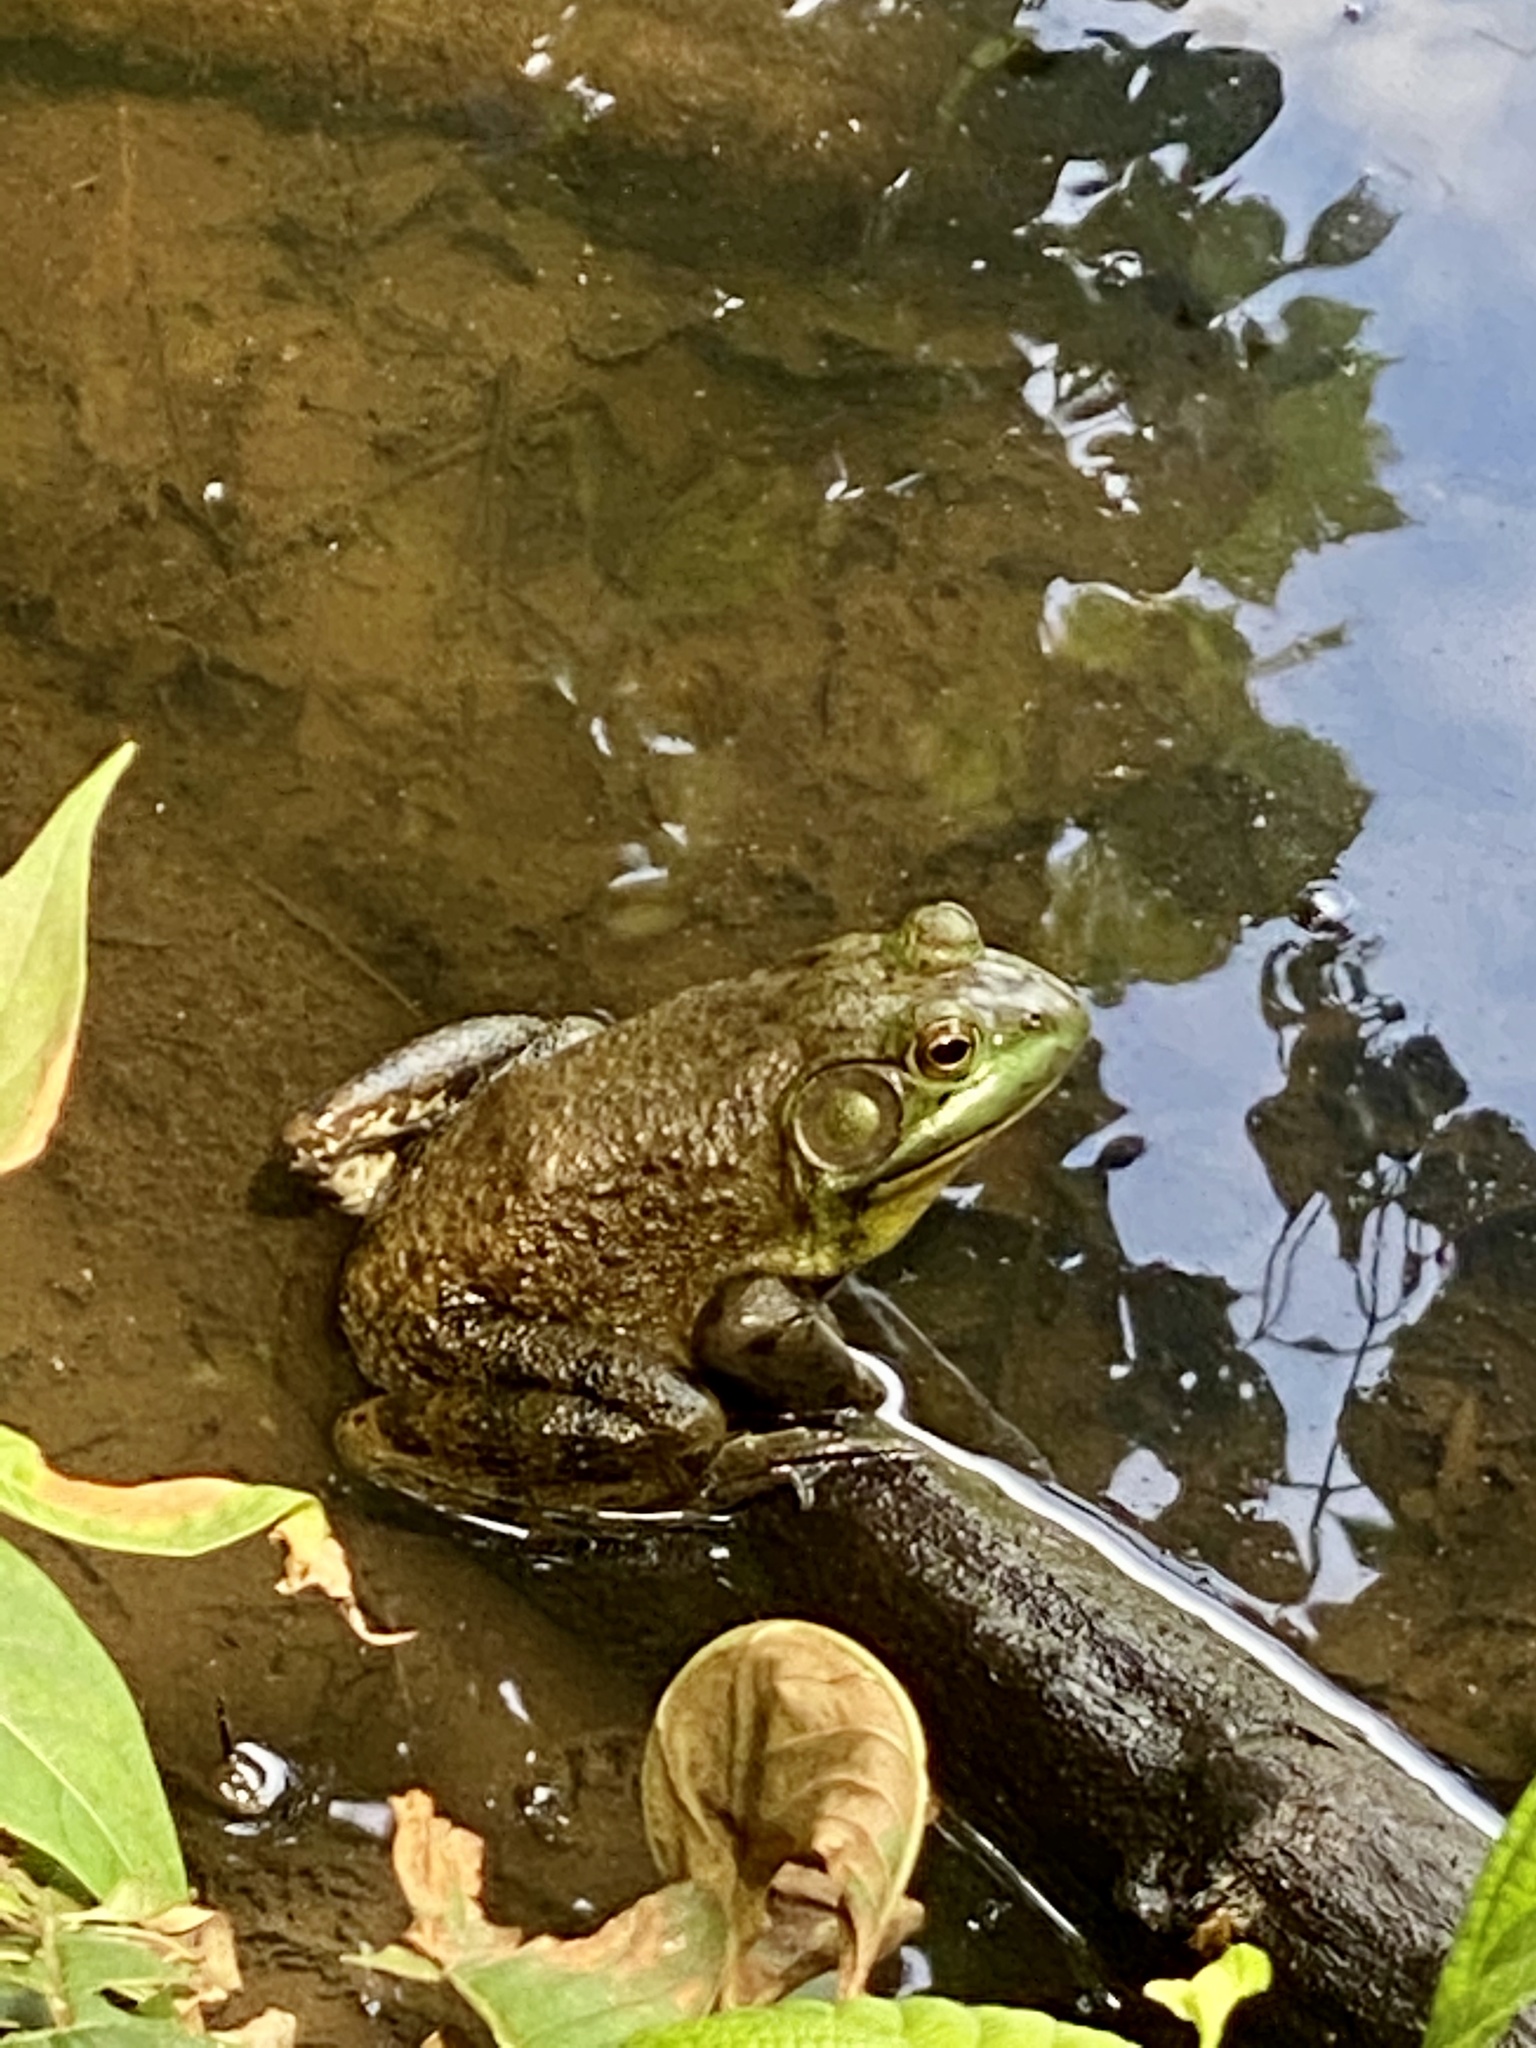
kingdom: Animalia
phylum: Chordata
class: Amphibia
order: Anura
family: Ranidae
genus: Lithobates
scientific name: Lithobates catesbeianus
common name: American bullfrog
